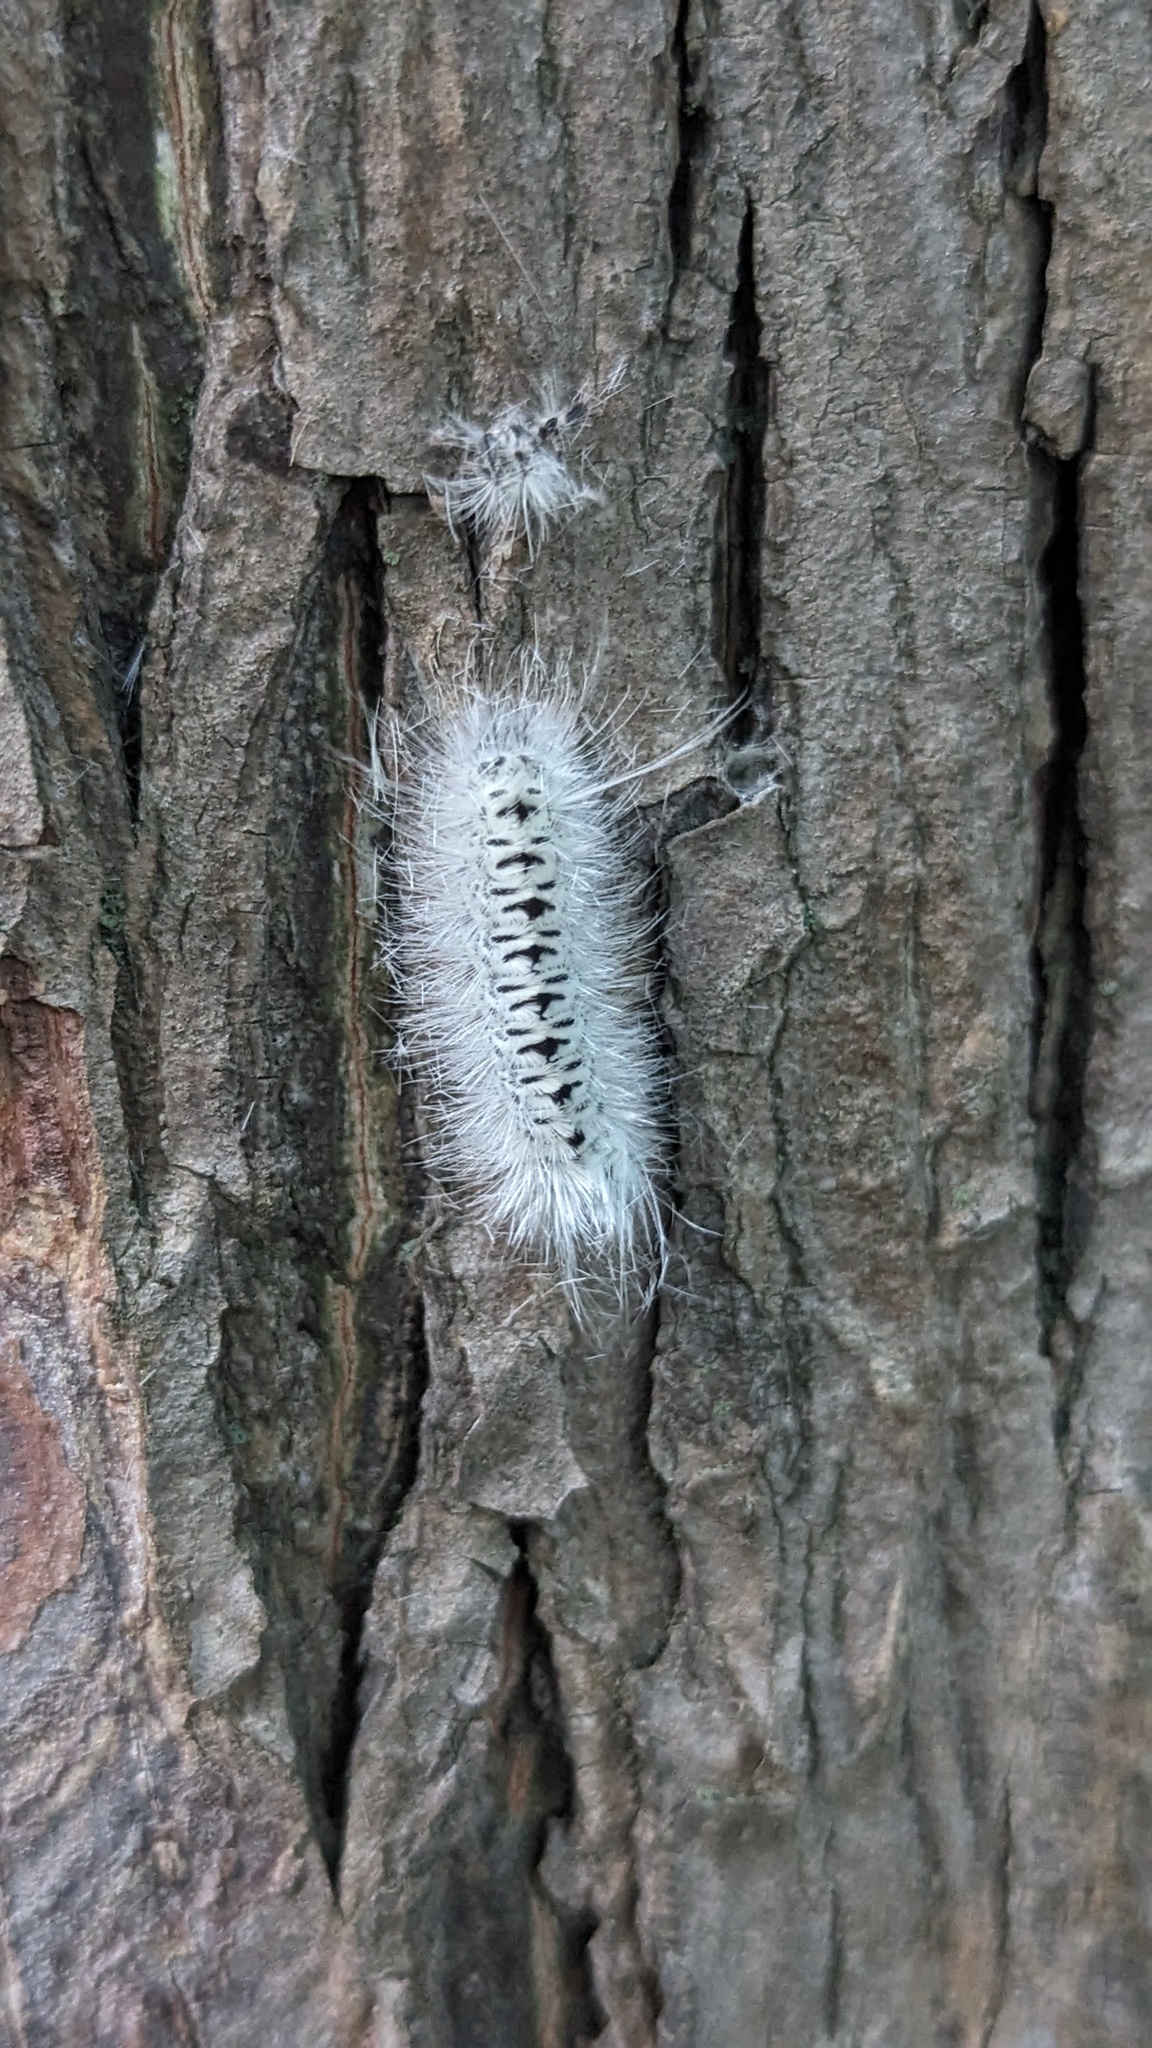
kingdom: Animalia
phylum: Arthropoda
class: Insecta
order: Lepidoptera
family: Erebidae
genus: Lophocampa
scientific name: Lophocampa caryae
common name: Hickory tussock moth
